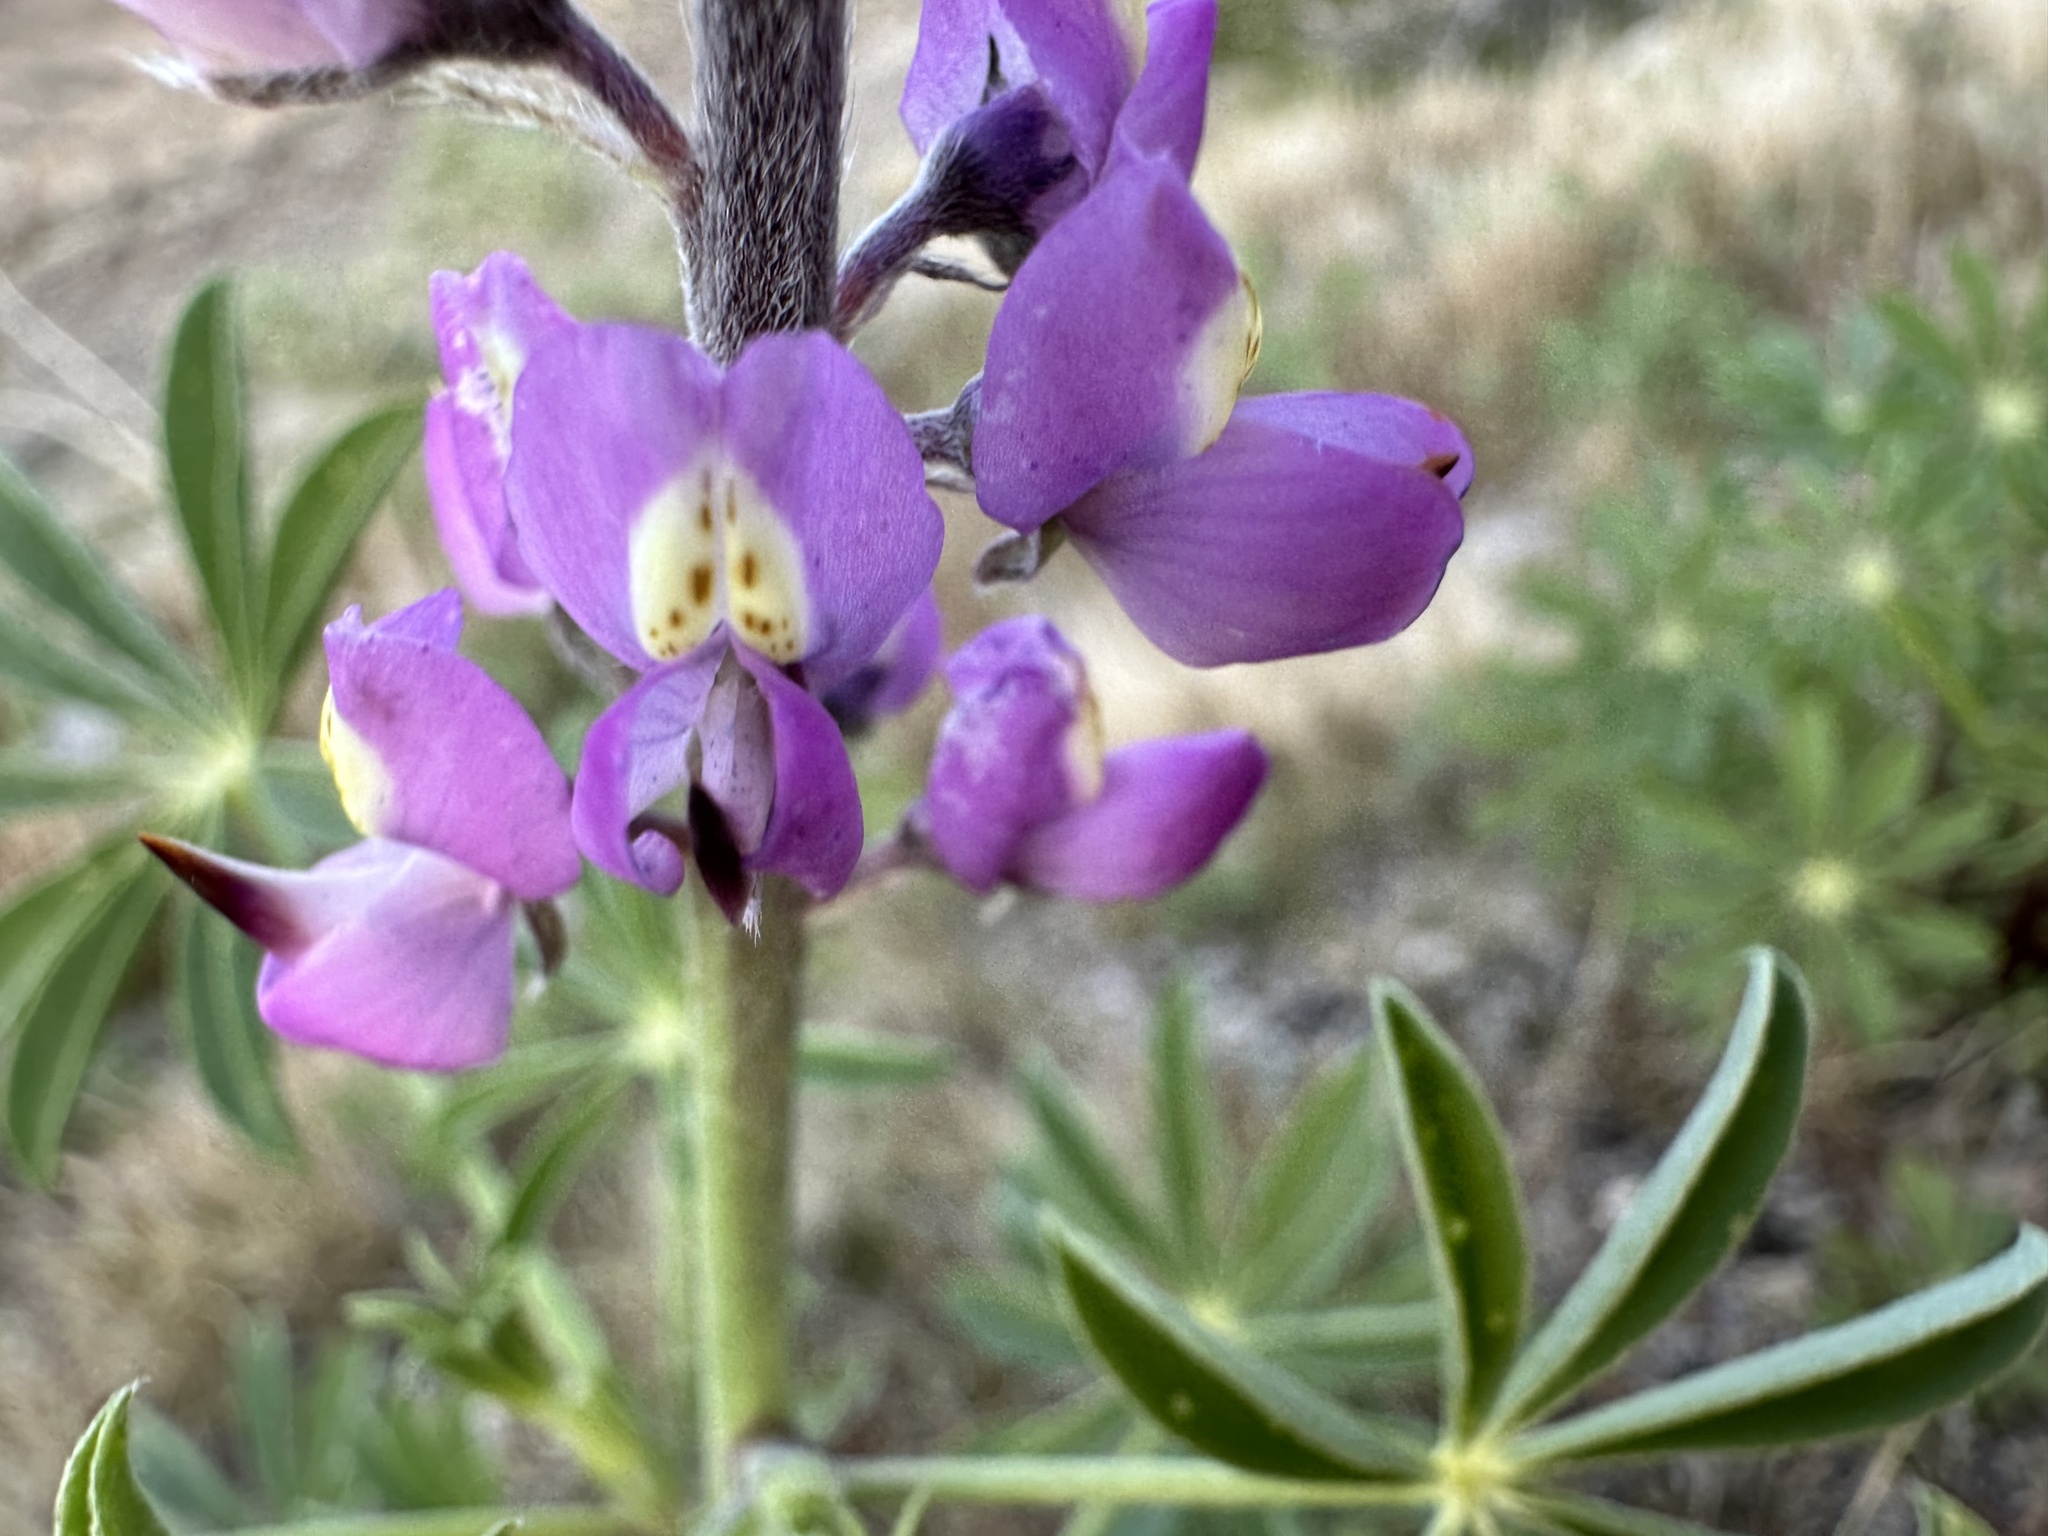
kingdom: Plantae
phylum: Tracheophyta
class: Magnoliopsida
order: Fabales
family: Fabaceae
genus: Lupinus
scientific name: Lupinus arizonicus
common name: Arizona lupine
